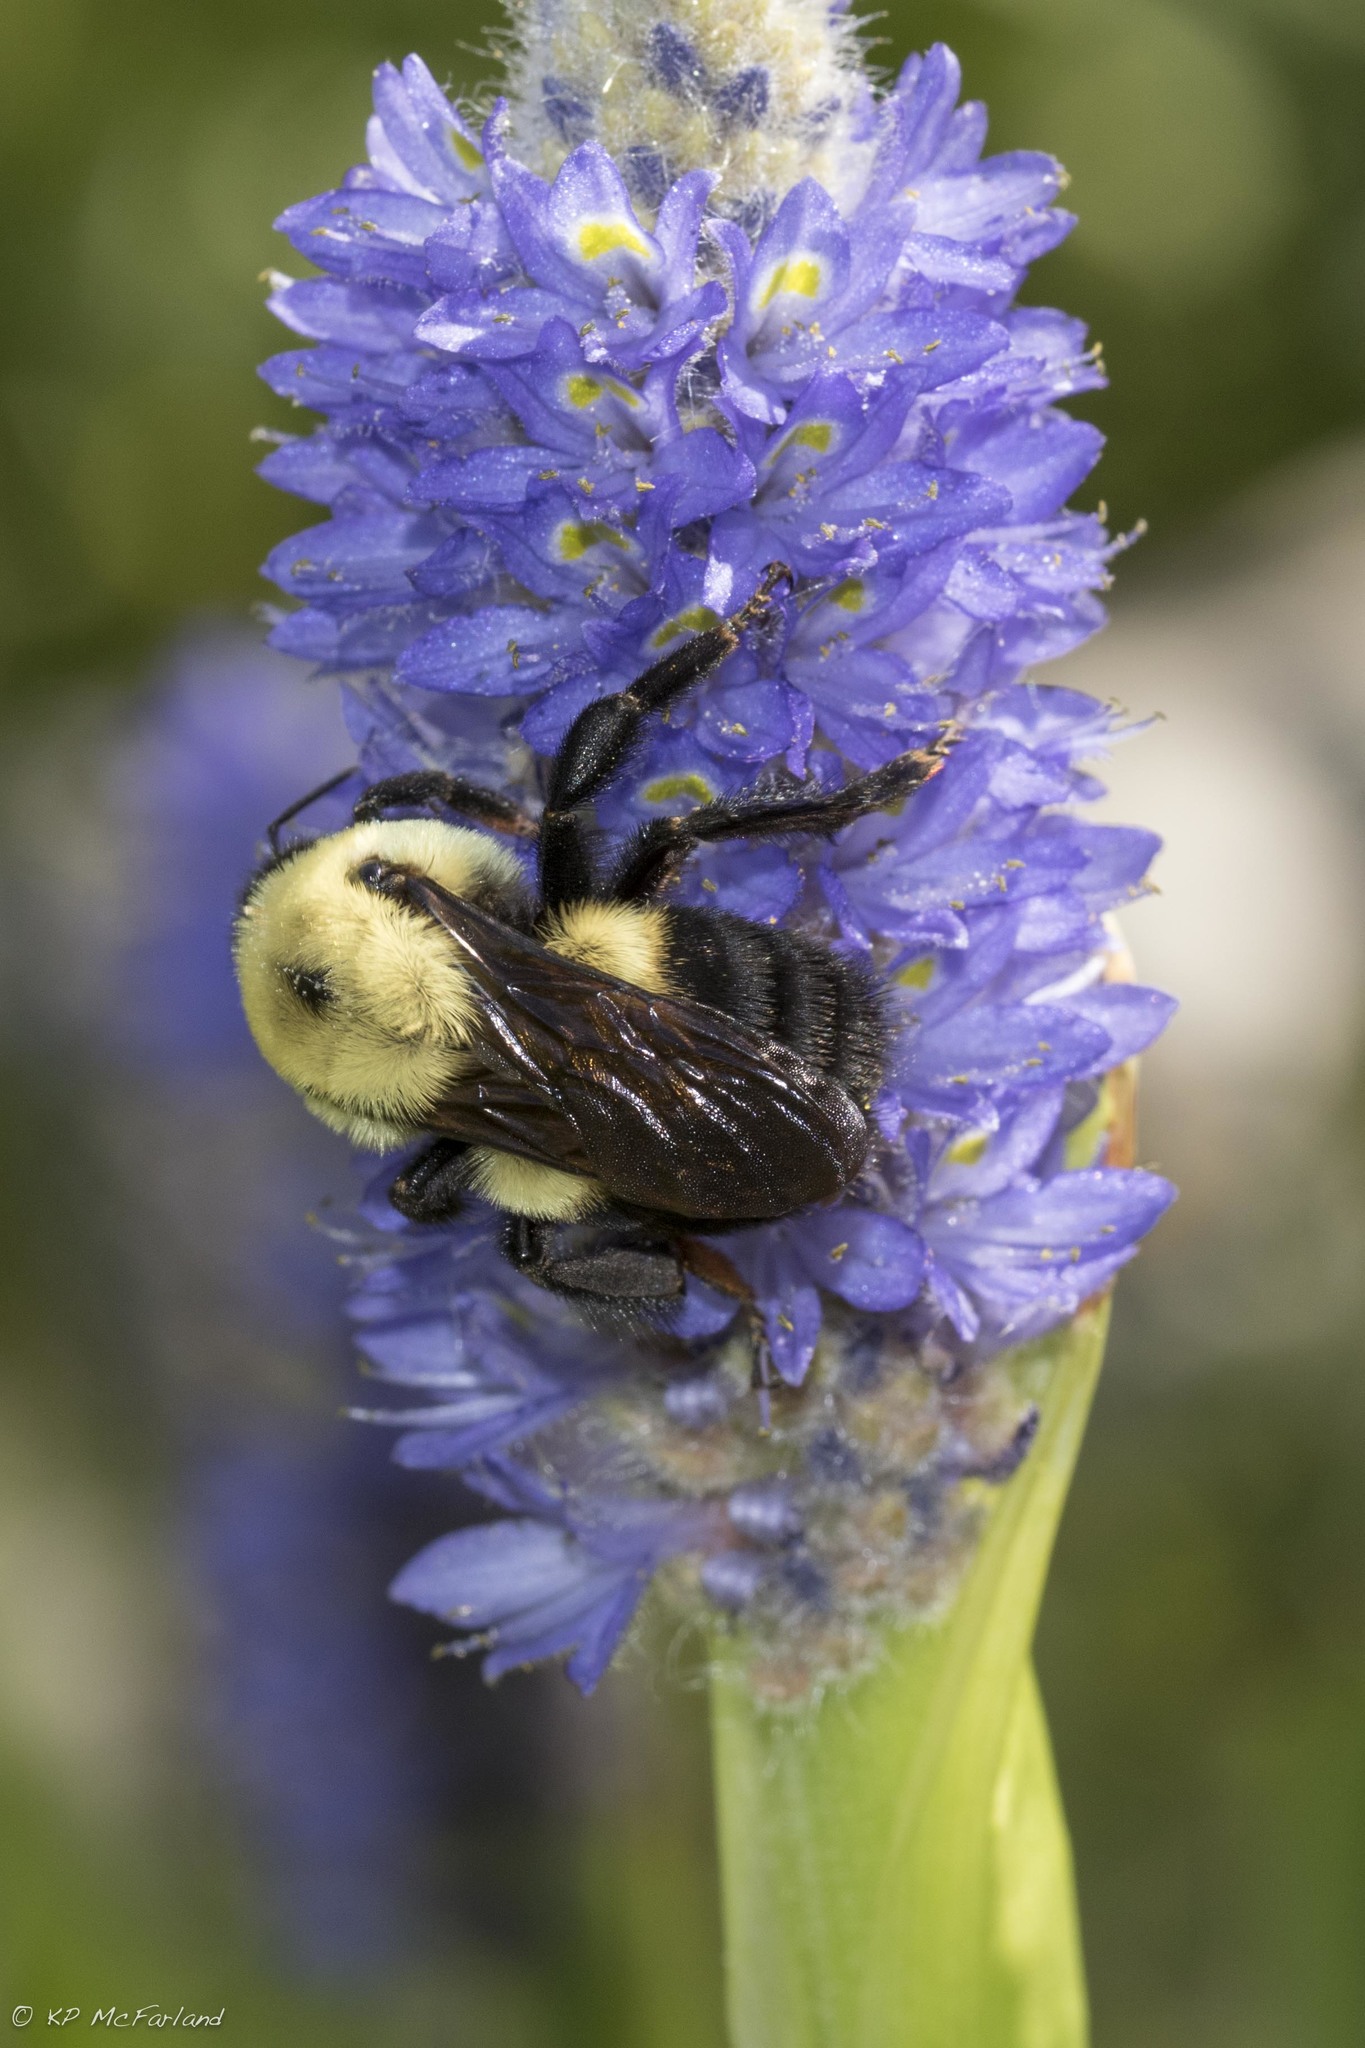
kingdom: Animalia
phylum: Arthropoda
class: Insecta
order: Hymenoptera
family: Apidae
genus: Bombus
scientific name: Bombus griseocollis
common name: Brown-belted bumble bee
